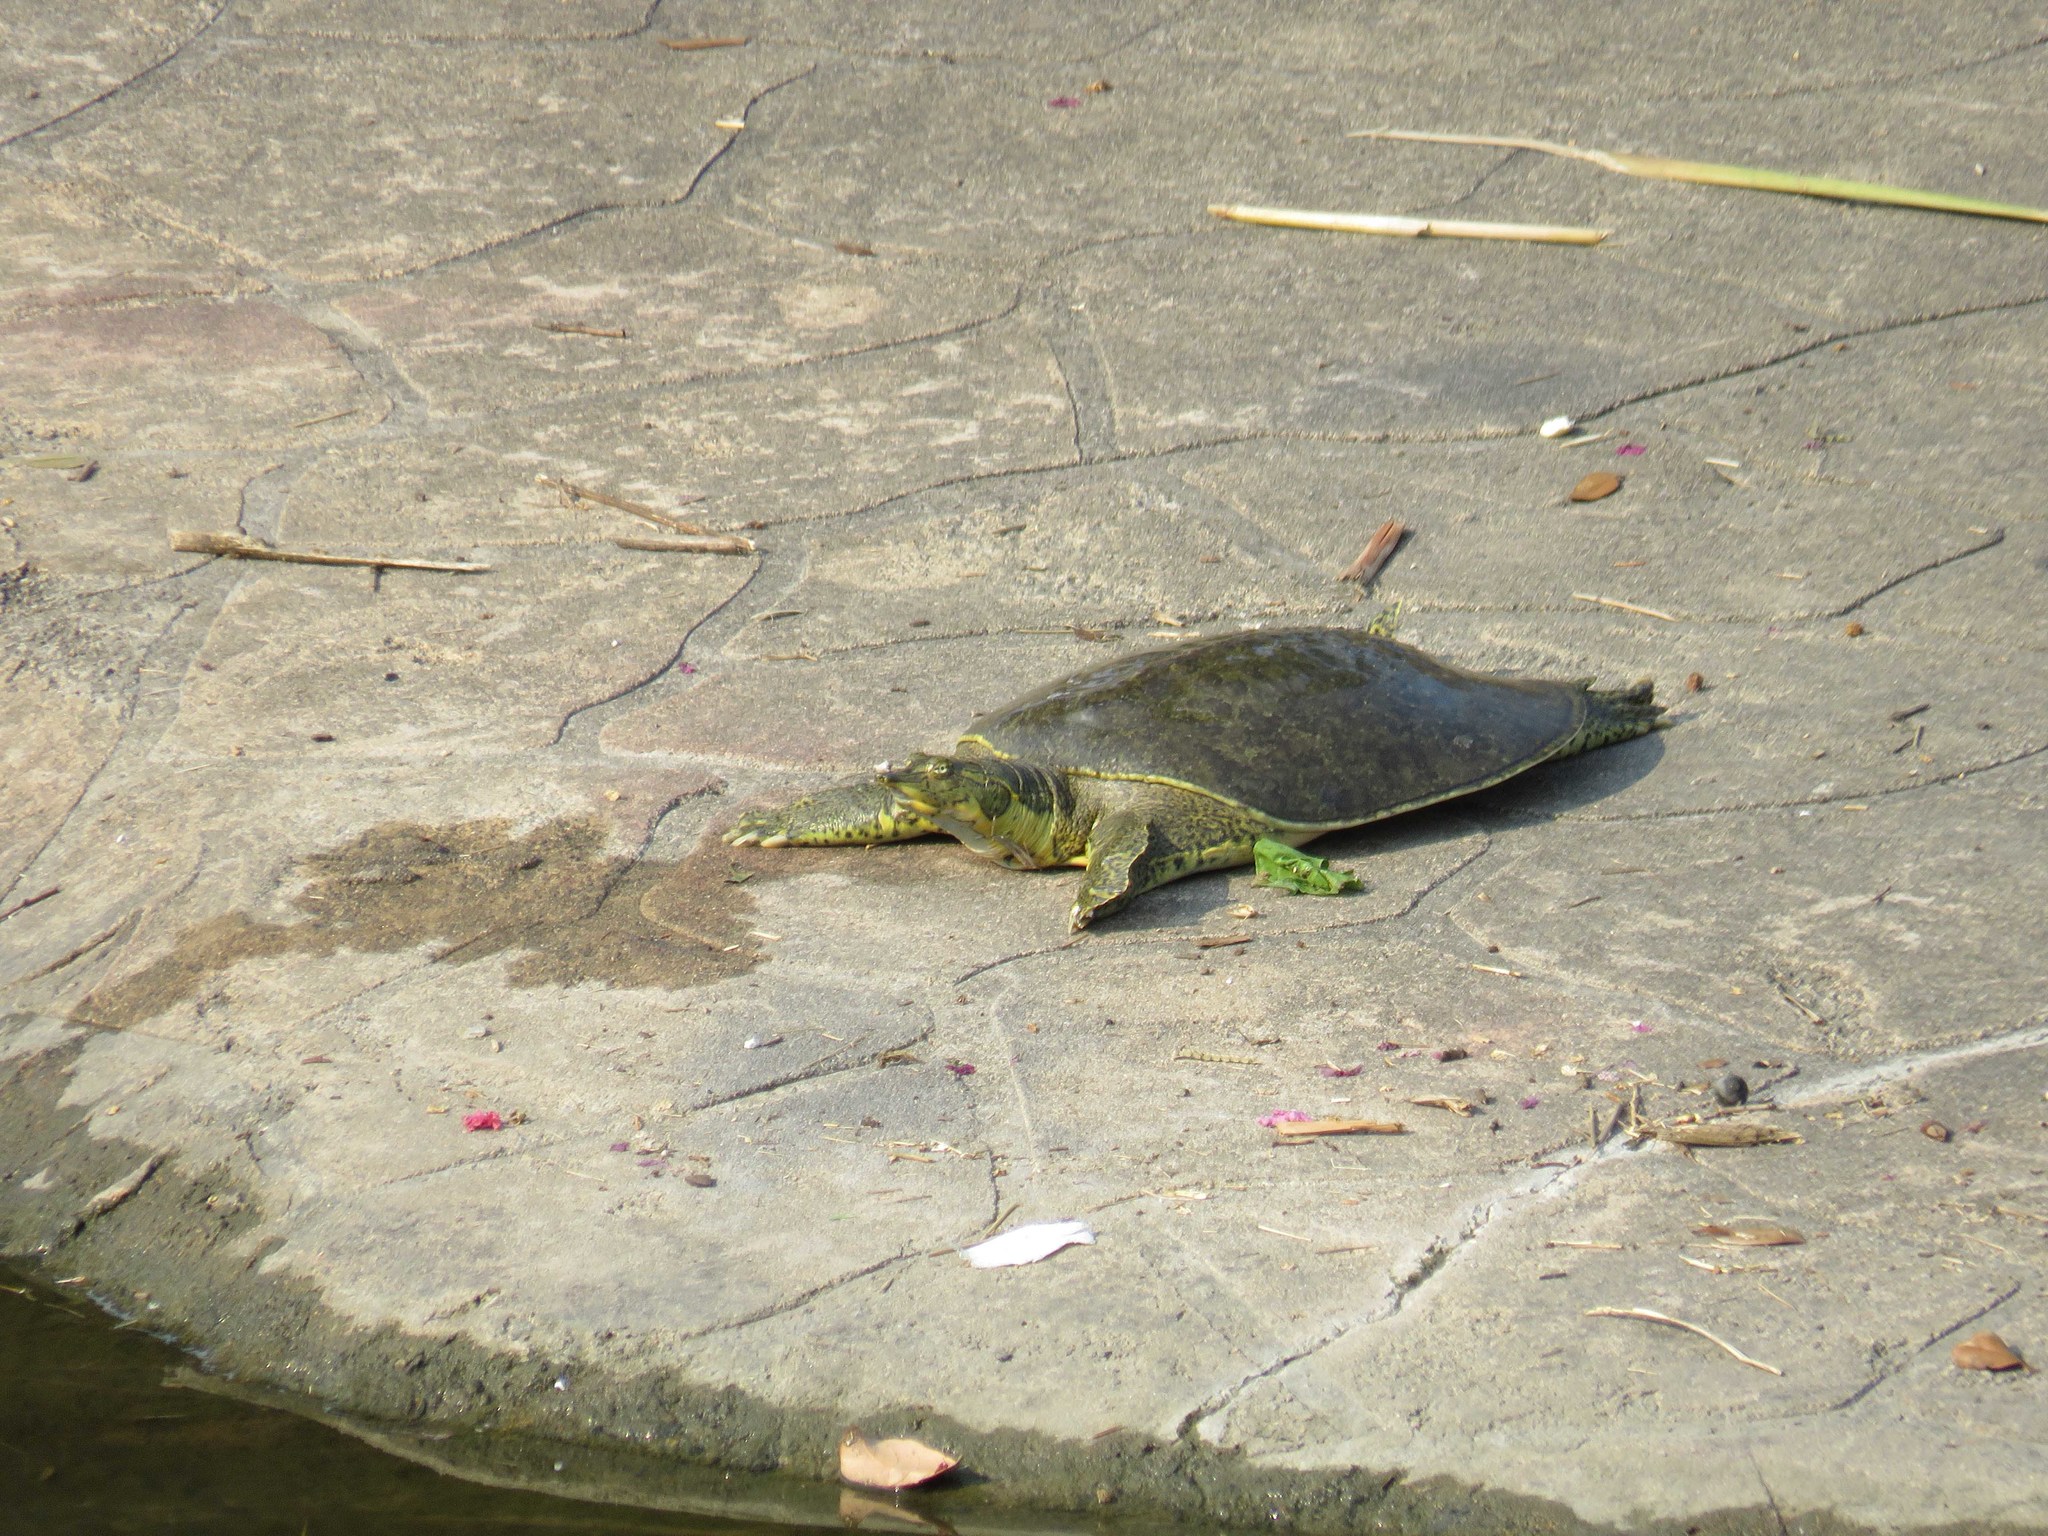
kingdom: Animalia
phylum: Chordata
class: Testudines
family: Trionychidae
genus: Apalone
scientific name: Apalone spinifera
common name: Spiny softshell turtle
